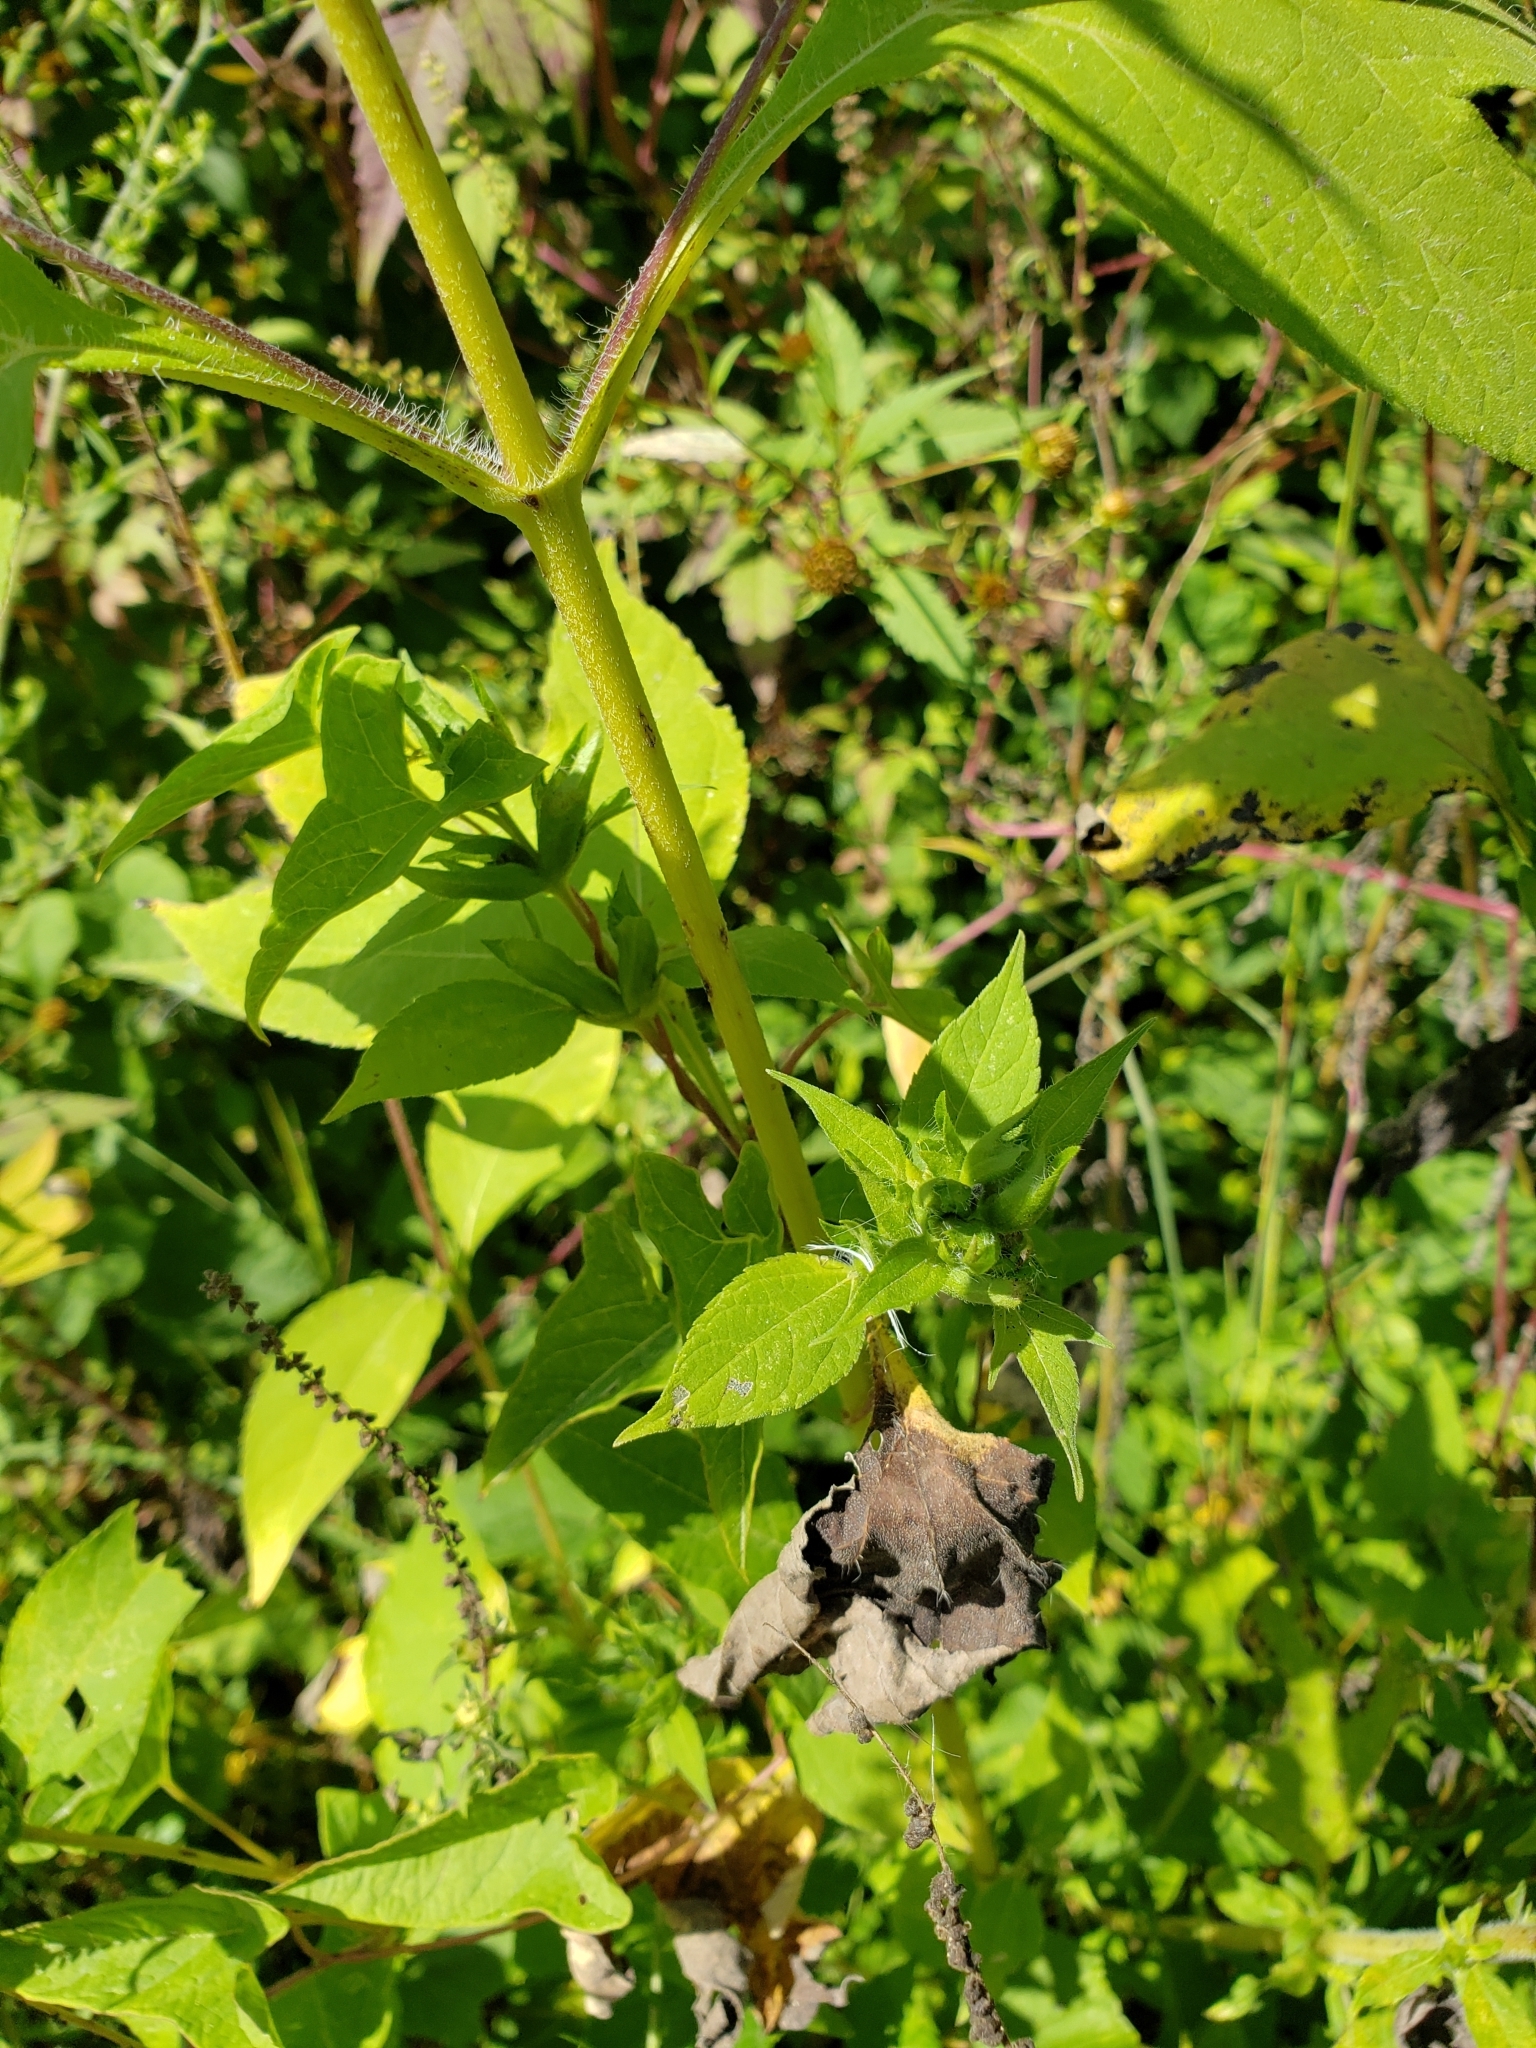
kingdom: Plantae
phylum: Tracheophyta
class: Magnoliopsida
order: Asterales
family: Asteraceae
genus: Ambrosia
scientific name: Ambrosia trifida
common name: Giant ragweed
